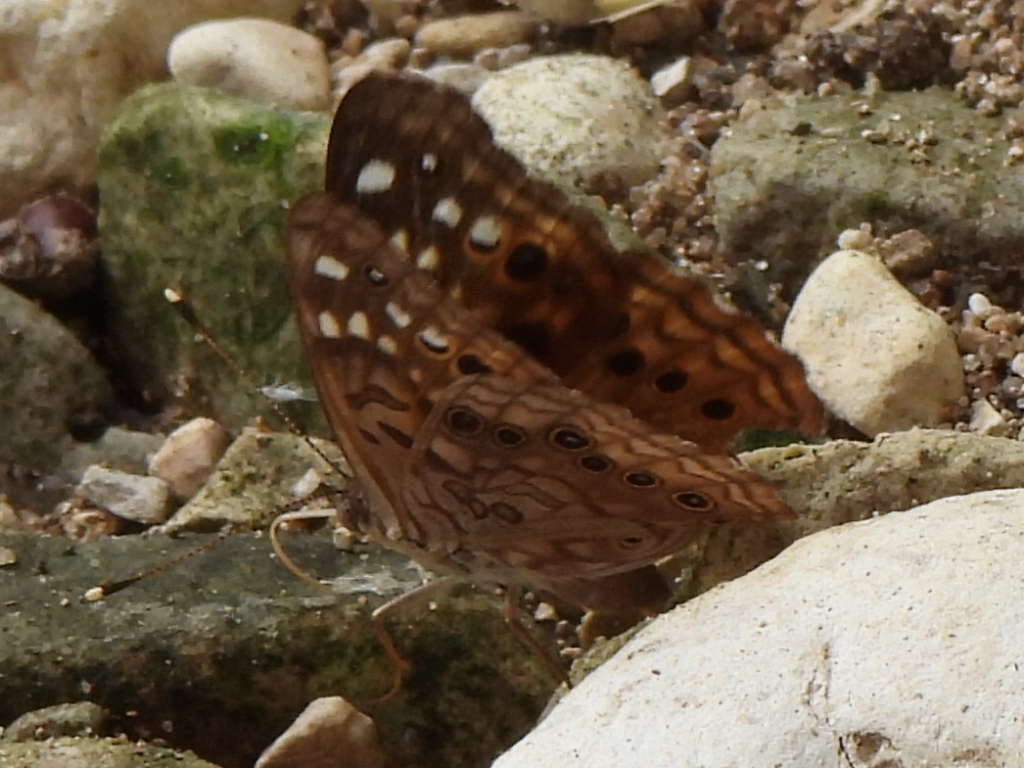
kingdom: Animalia
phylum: Arthropoda
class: Insecta
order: Lepidoptera
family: Nymphalidae
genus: Asterocampa
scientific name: Asterocampa celtis
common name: Hackberry emperor
